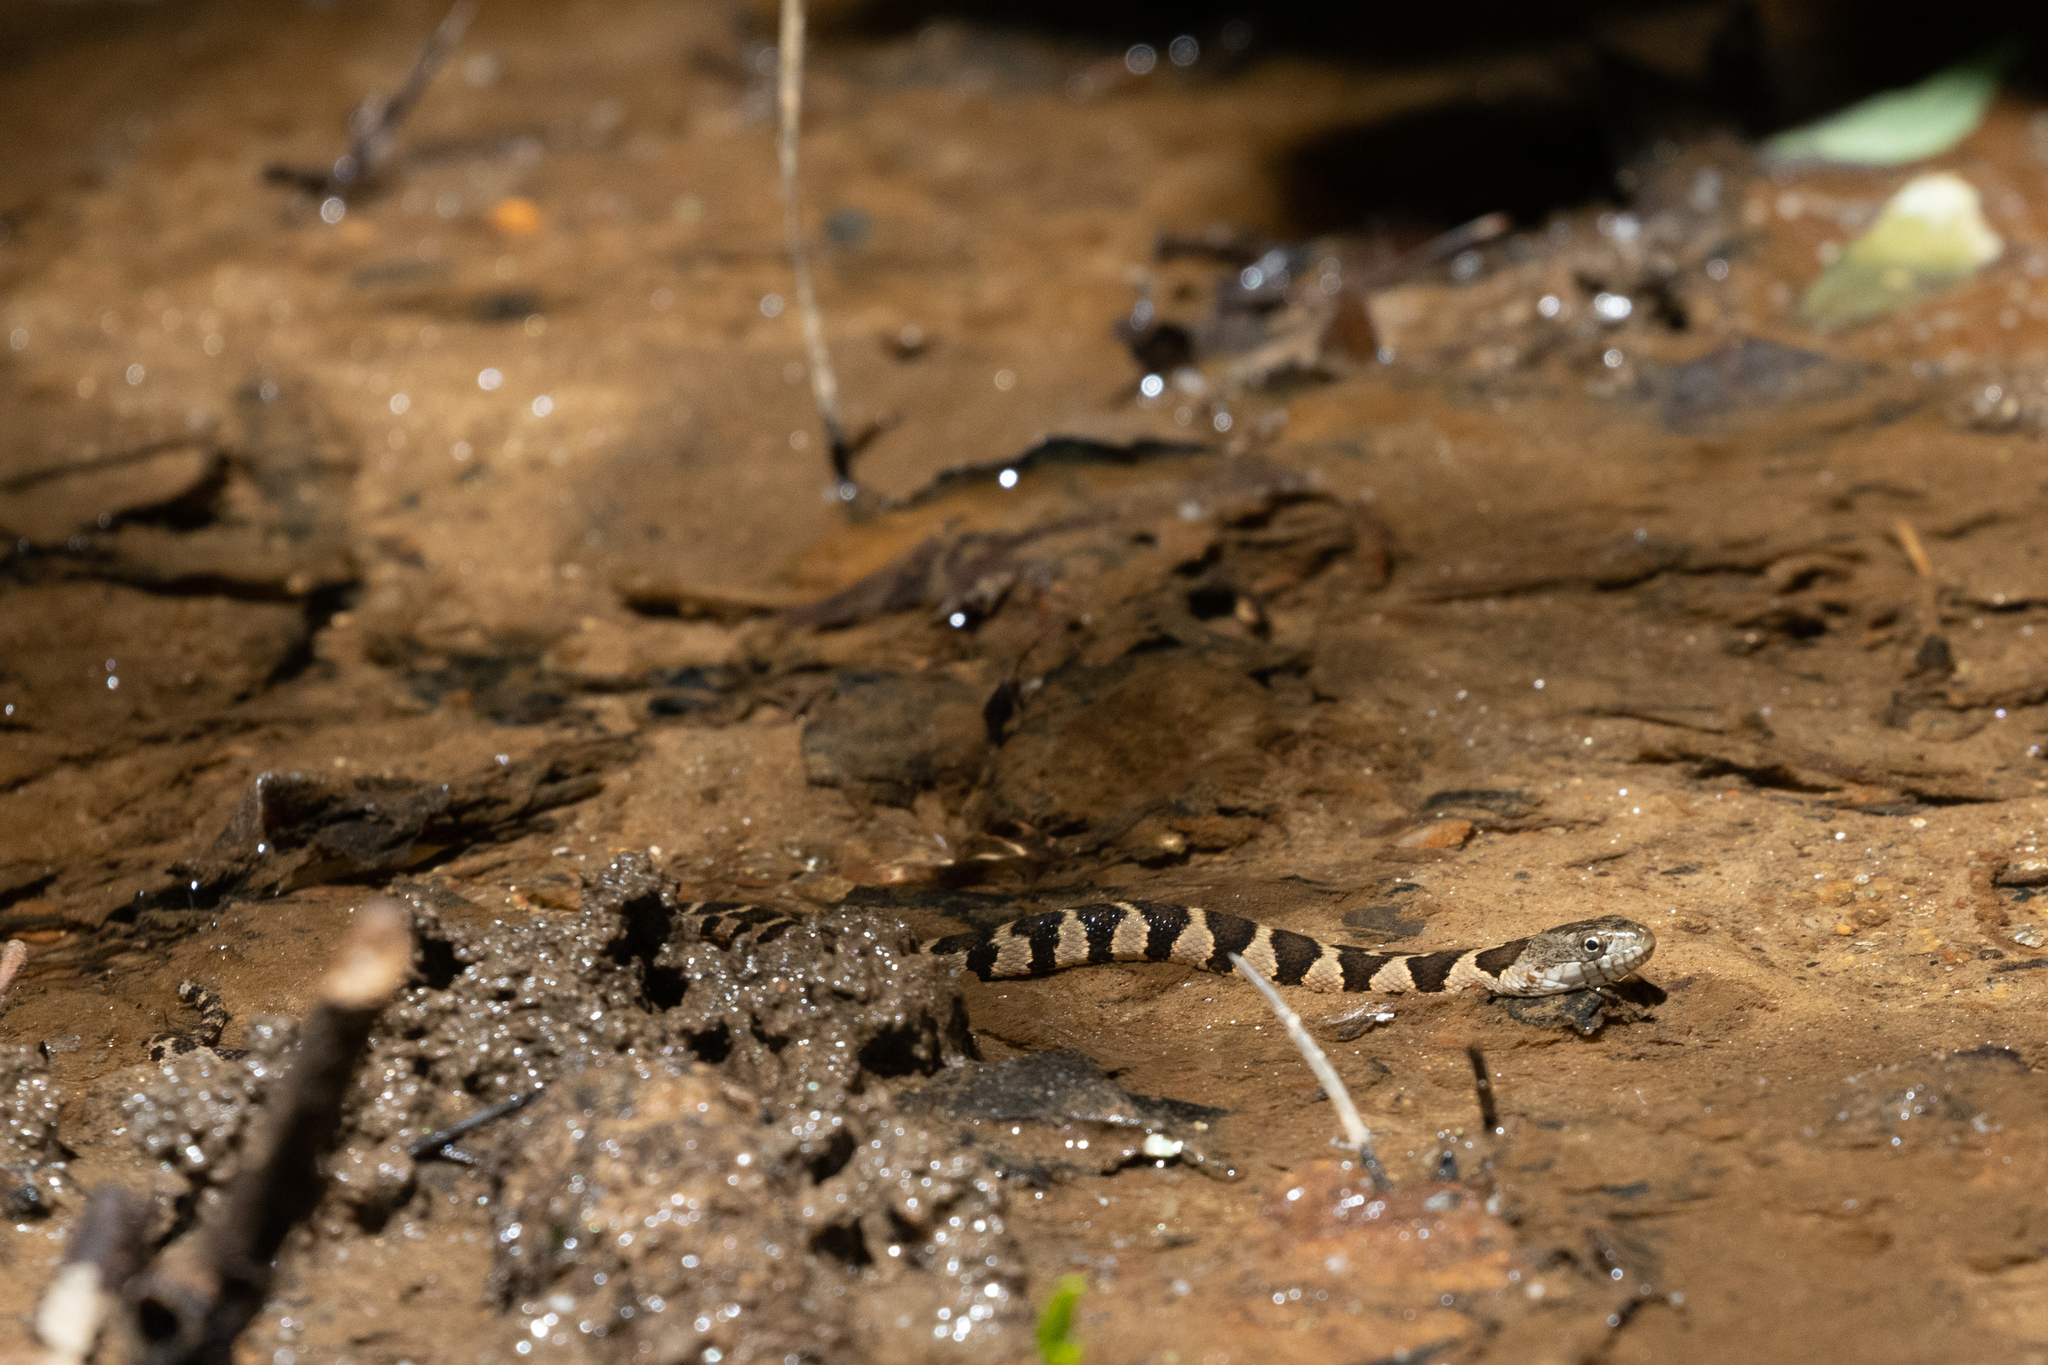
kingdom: Animalia
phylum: Chordata
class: Squamata
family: Colubridae
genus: Nerodia
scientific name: Nerodia sipedon
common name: Northern water snake
